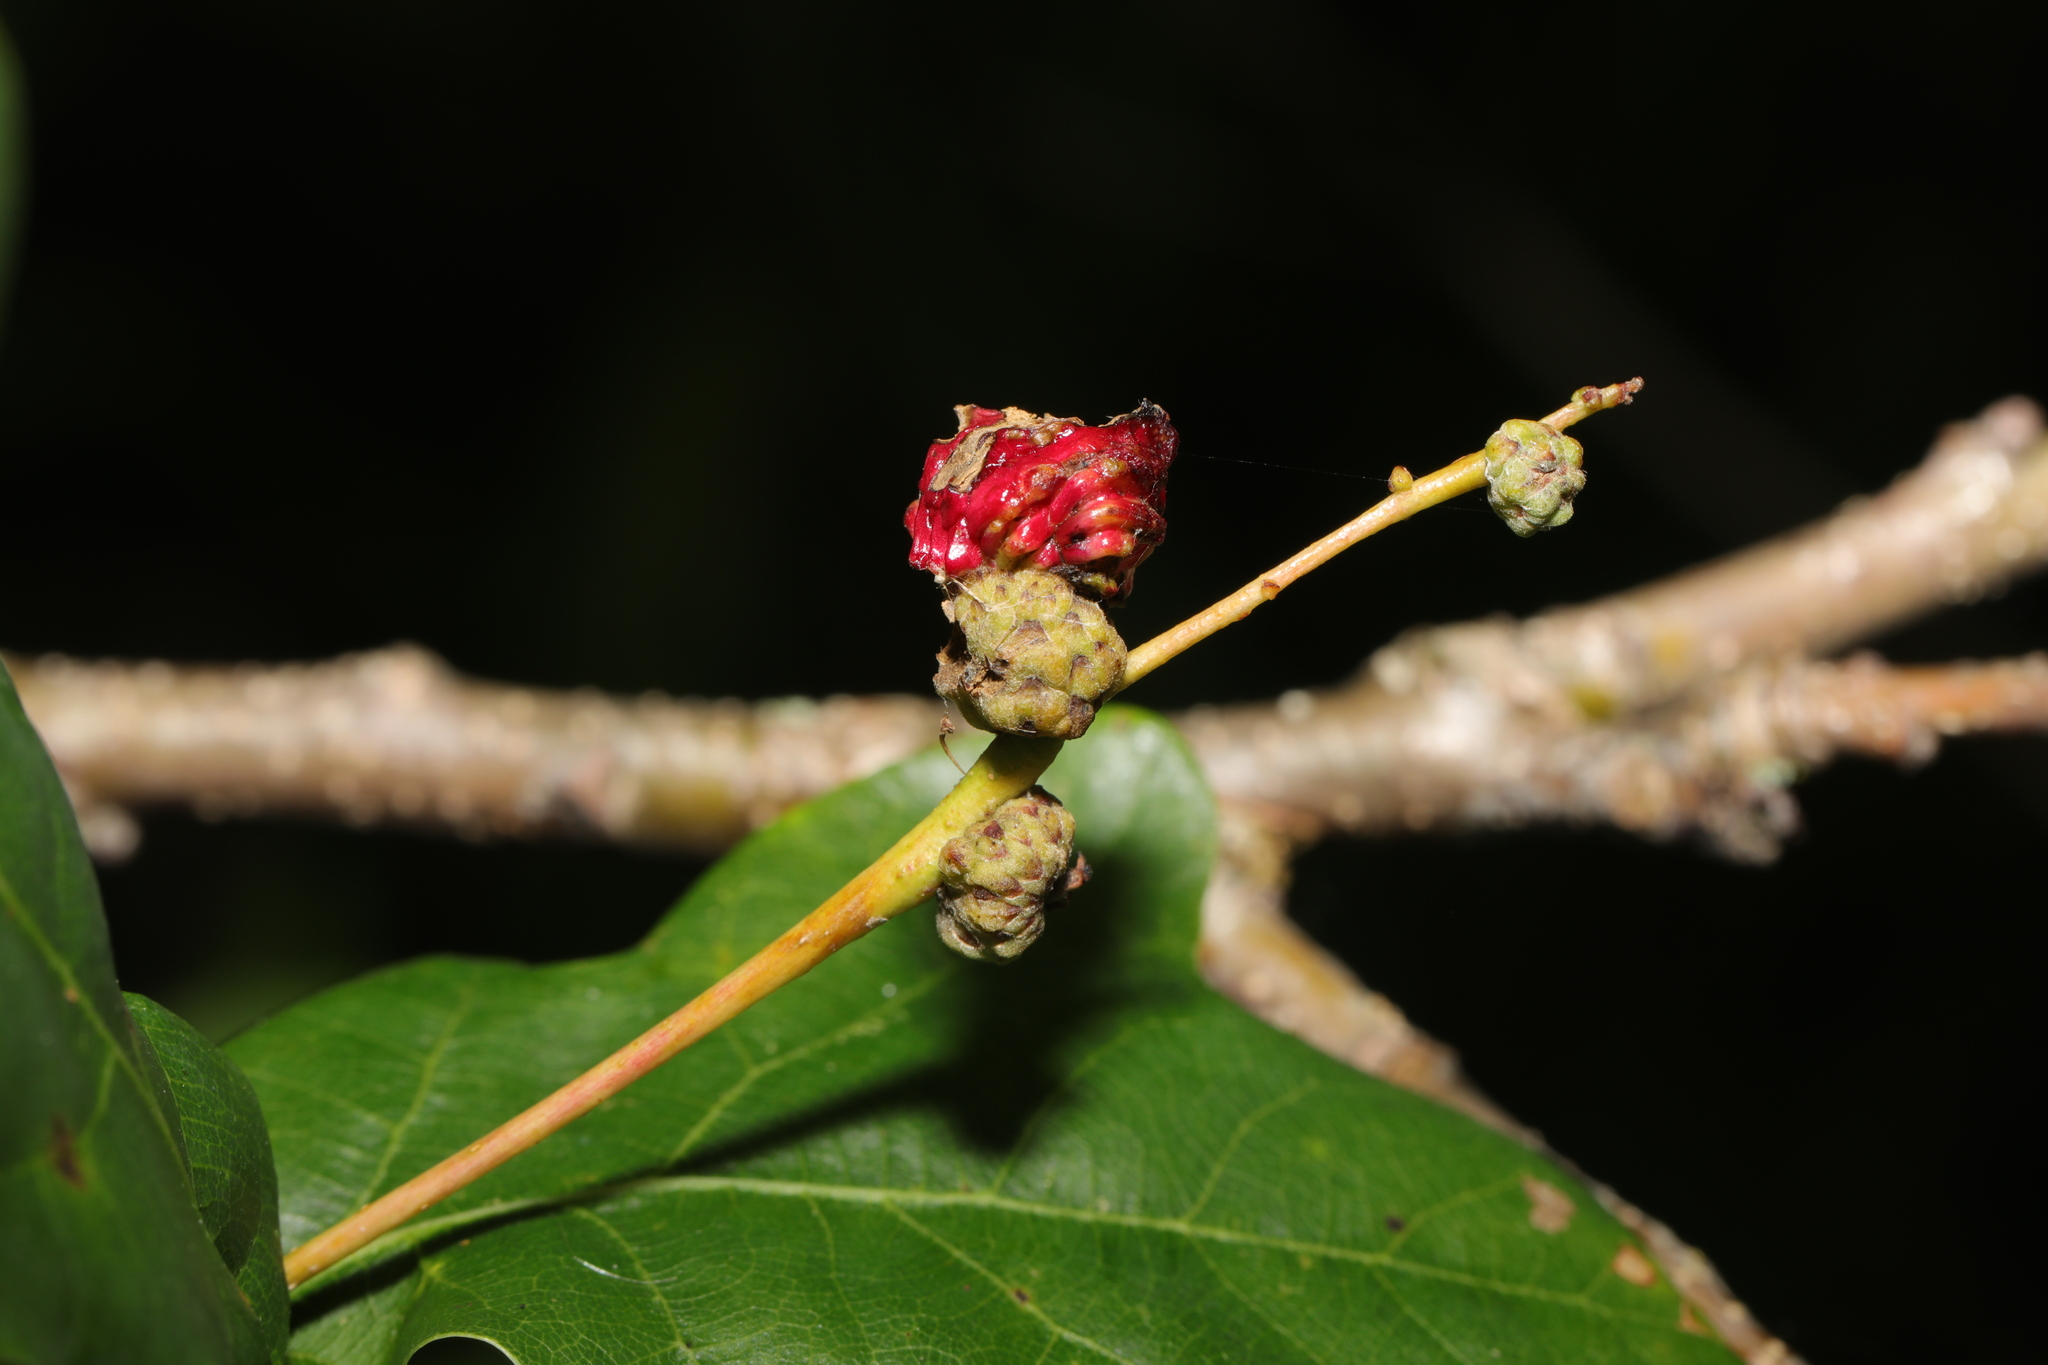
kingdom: Animalia
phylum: Arthropoda
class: Insecta
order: Hymenoptera
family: Cynipidae
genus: Andricus
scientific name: Andricus grossulariae
